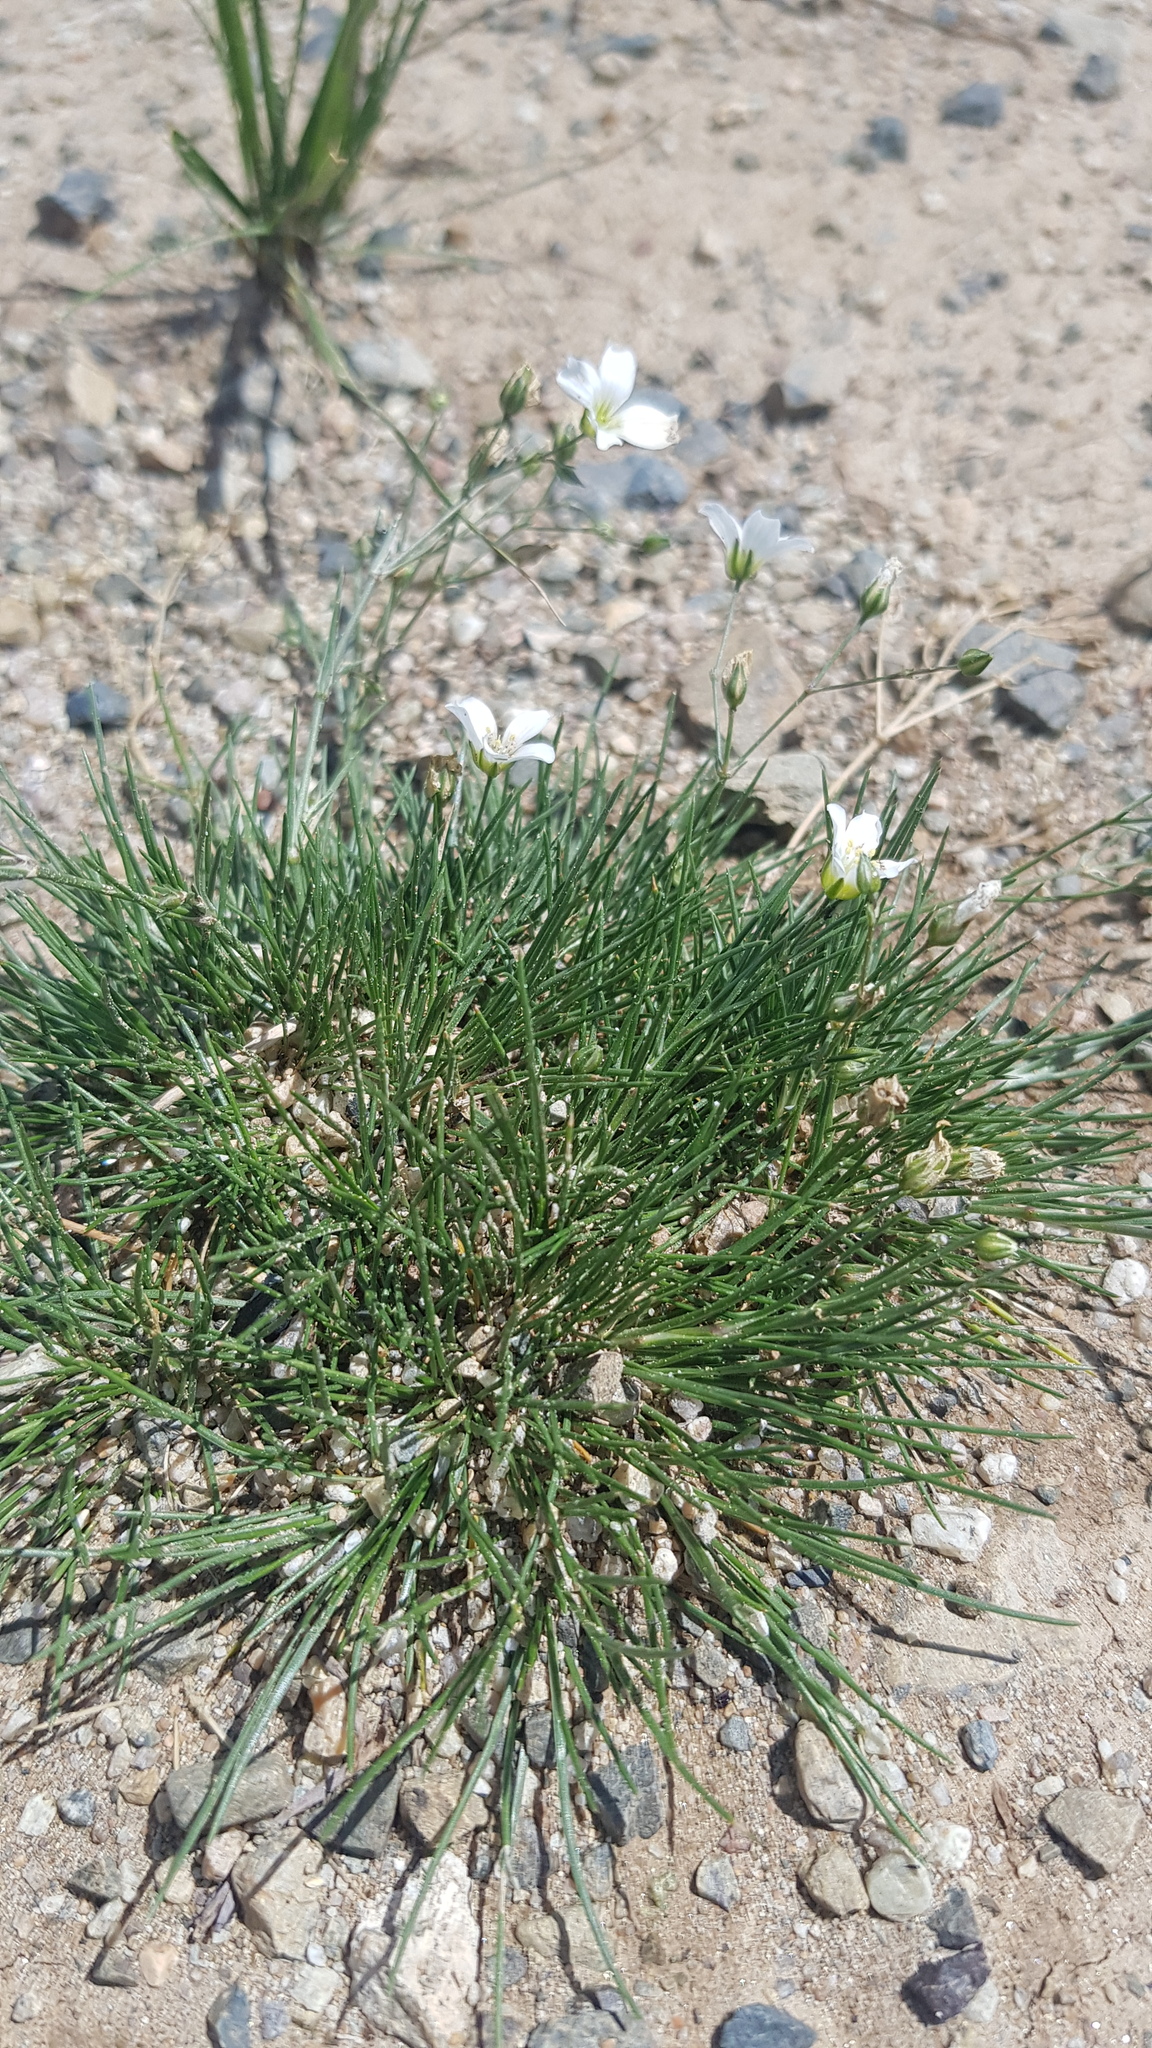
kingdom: Plantae
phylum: Tracheophyta
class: Magnoliopsida
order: Caryophyllales
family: Caryophyllaceae
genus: Eremogone
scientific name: Eremogone meyeri
